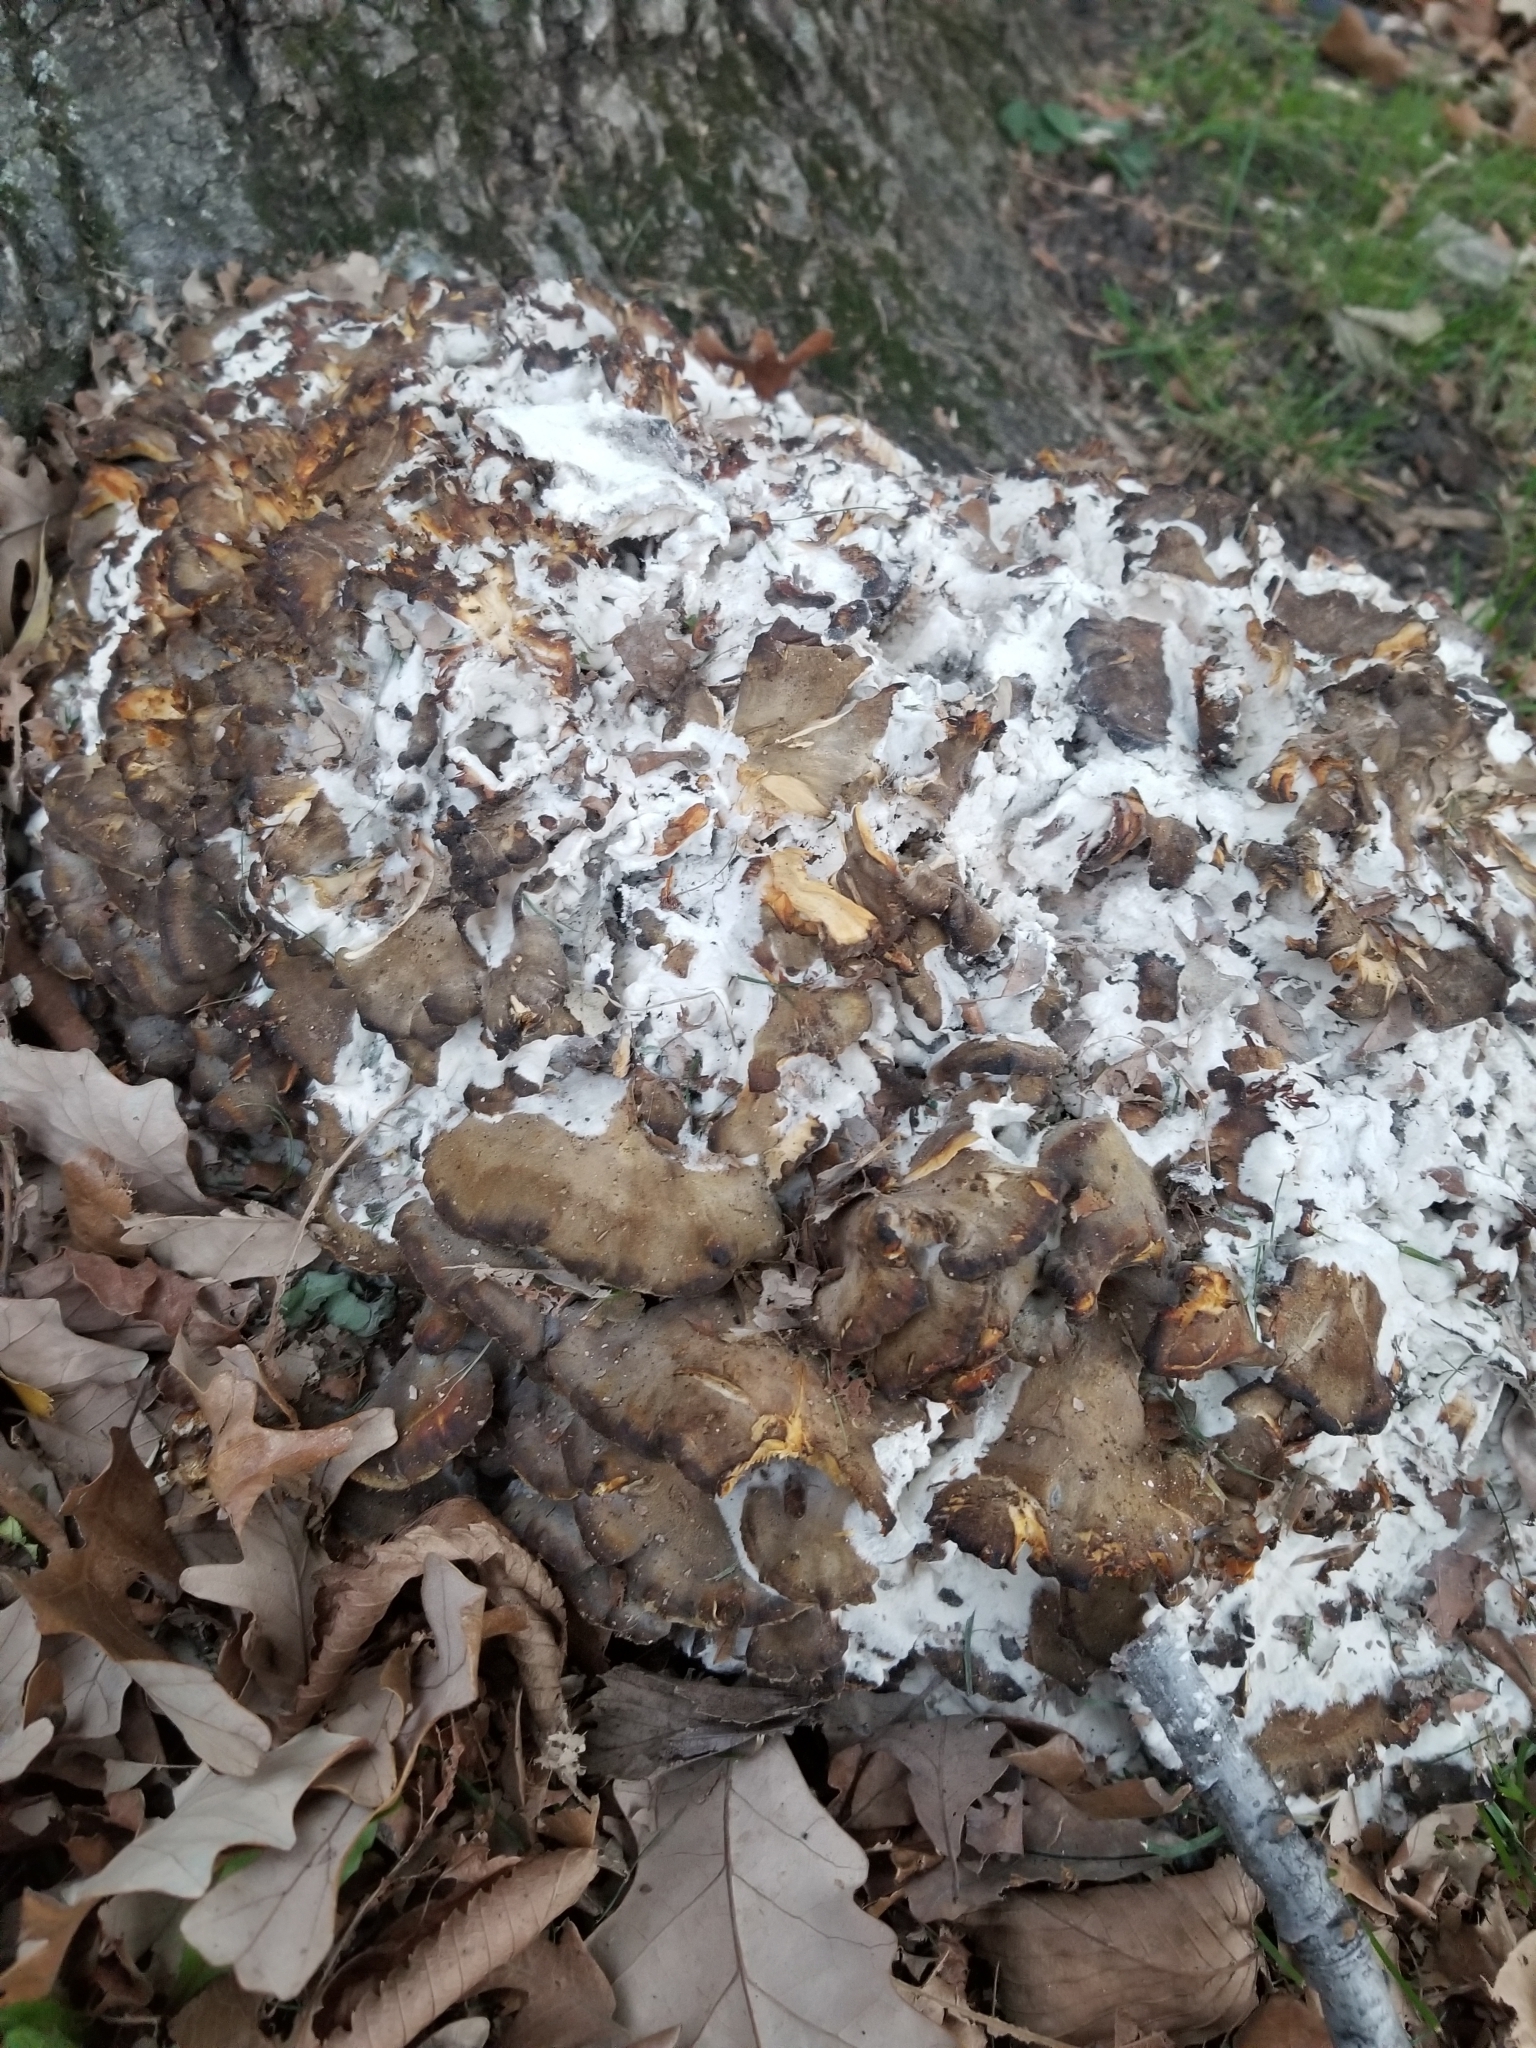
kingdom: Fungi
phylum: Basidiomycota
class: Agaricomycetes
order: Polyporales
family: Grifolaceae
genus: Grifola
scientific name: Grifola frondosa
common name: Hen of the woods
